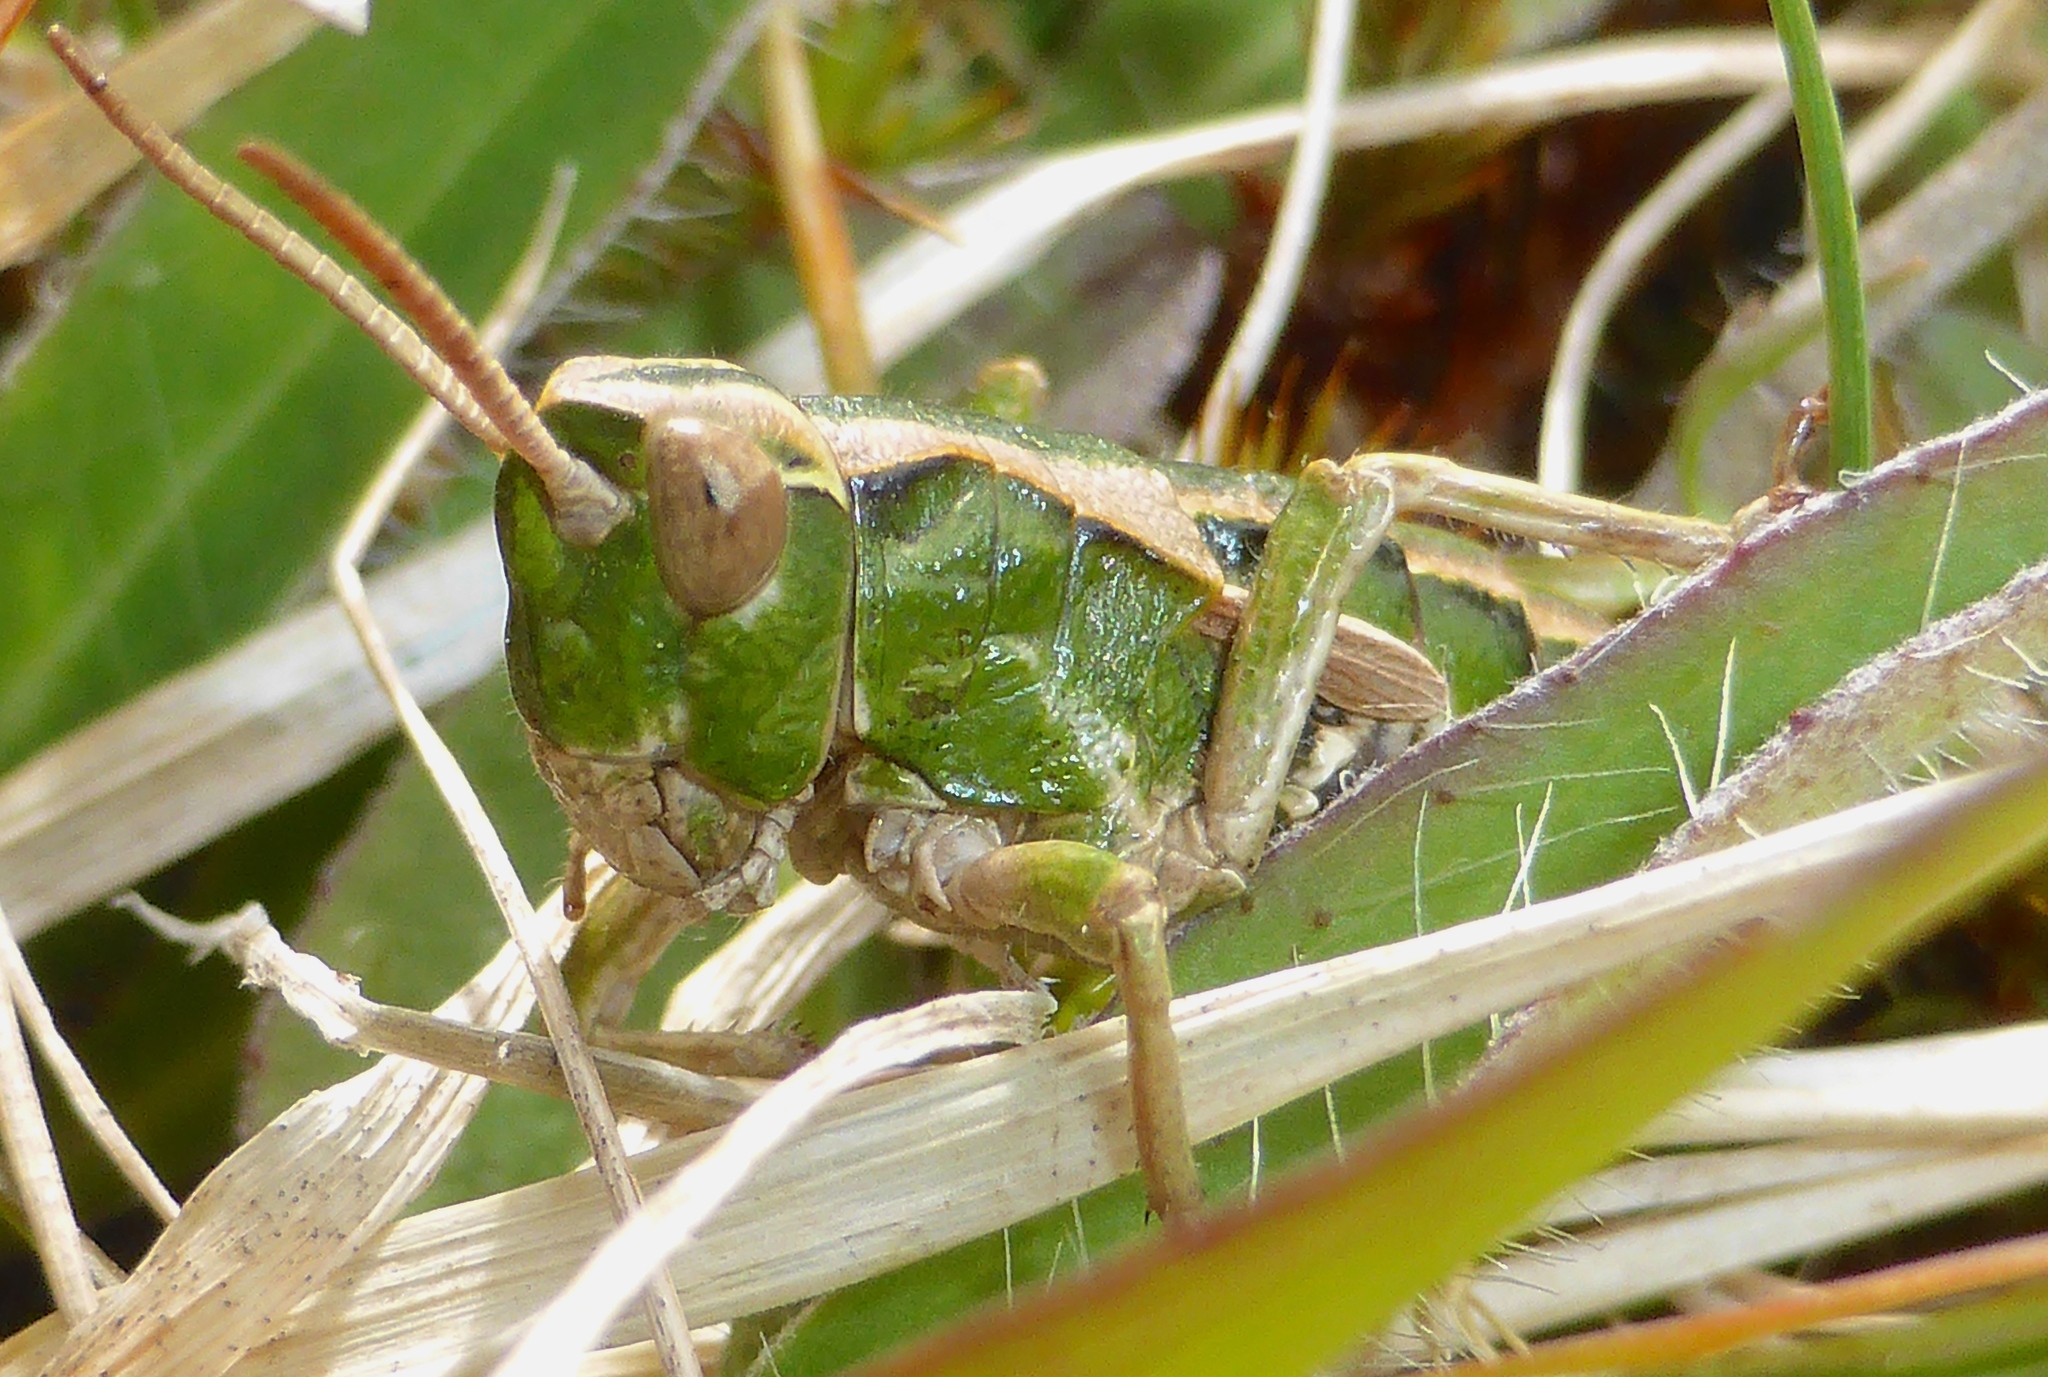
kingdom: Animalia
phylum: Arthropoda
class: Insecta
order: Orthoptera
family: Acrididae
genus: Sigaus
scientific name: Sigaus campestris
